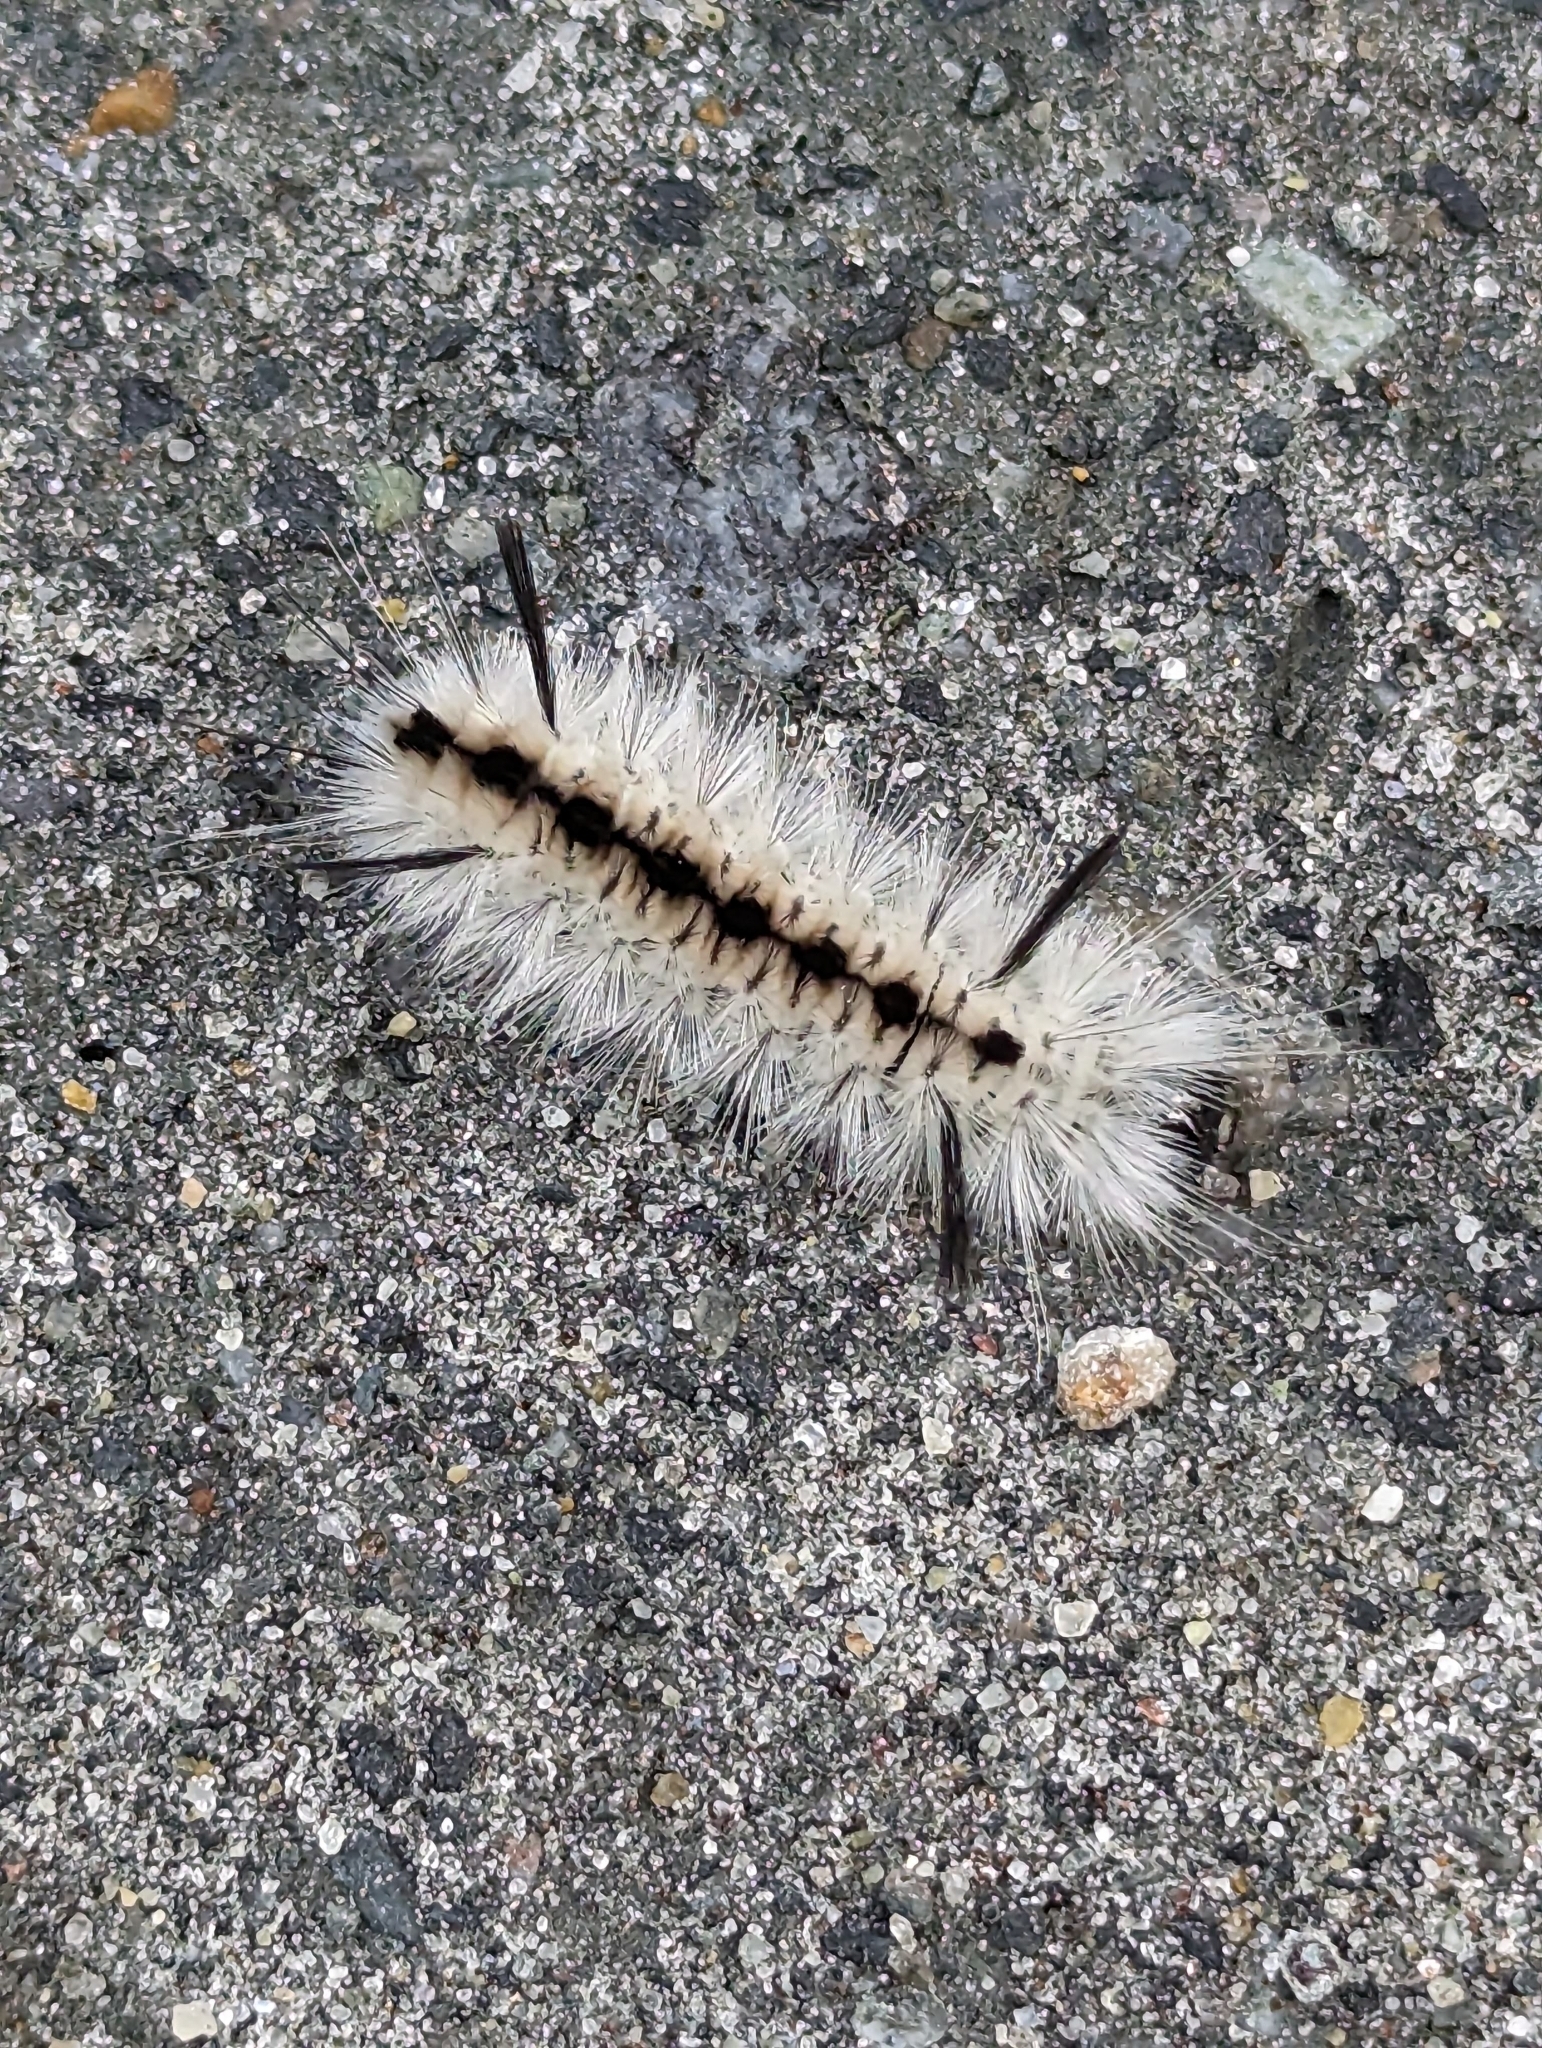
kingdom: Animalia
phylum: Arthropoda
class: Insecta
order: Lepidoptera
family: Erebidae
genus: Lophocampa
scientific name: Lophocampa caryae
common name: Hickory tussock moth
